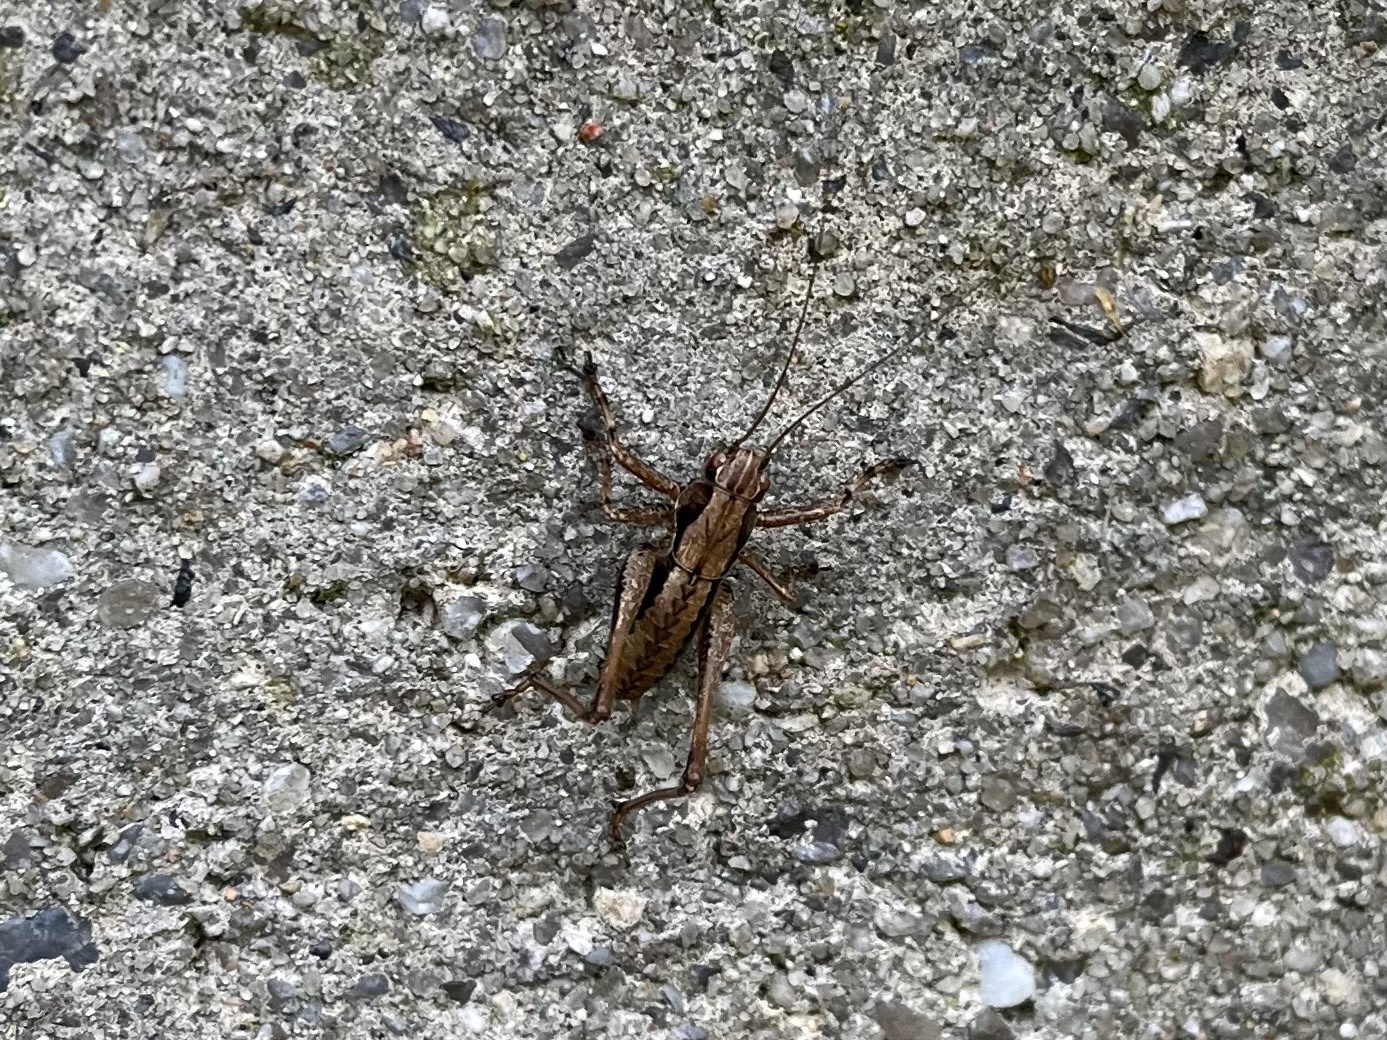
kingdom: Animalia
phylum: Arthropoda
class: Insecta
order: Orthoptera
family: Tettigoniidae
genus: Pholidoptera
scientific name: Pholidoptera griseoaptera
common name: Dark bush-cricket
